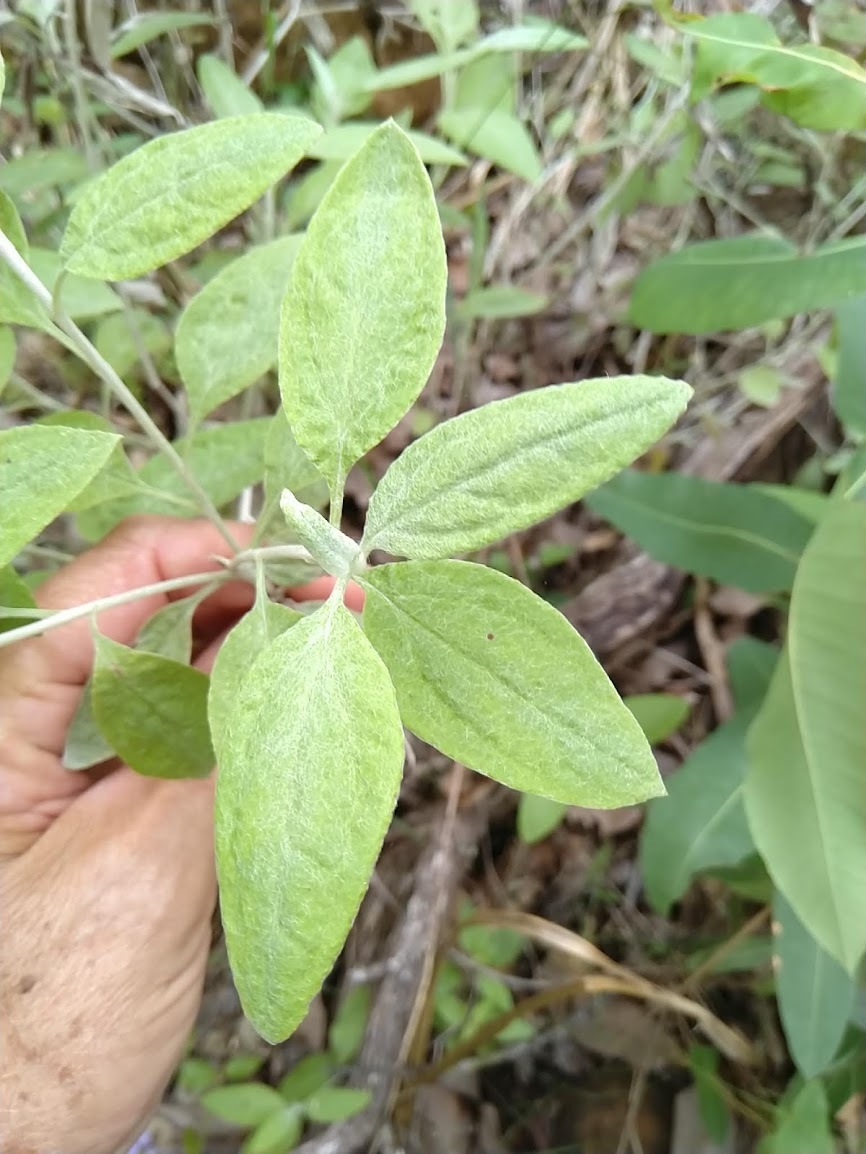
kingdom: Plantae
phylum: Tracheophyta
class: Magnoliopsida
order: Asterales
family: Asteraceae
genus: Acomis
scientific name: Acomis acoma
